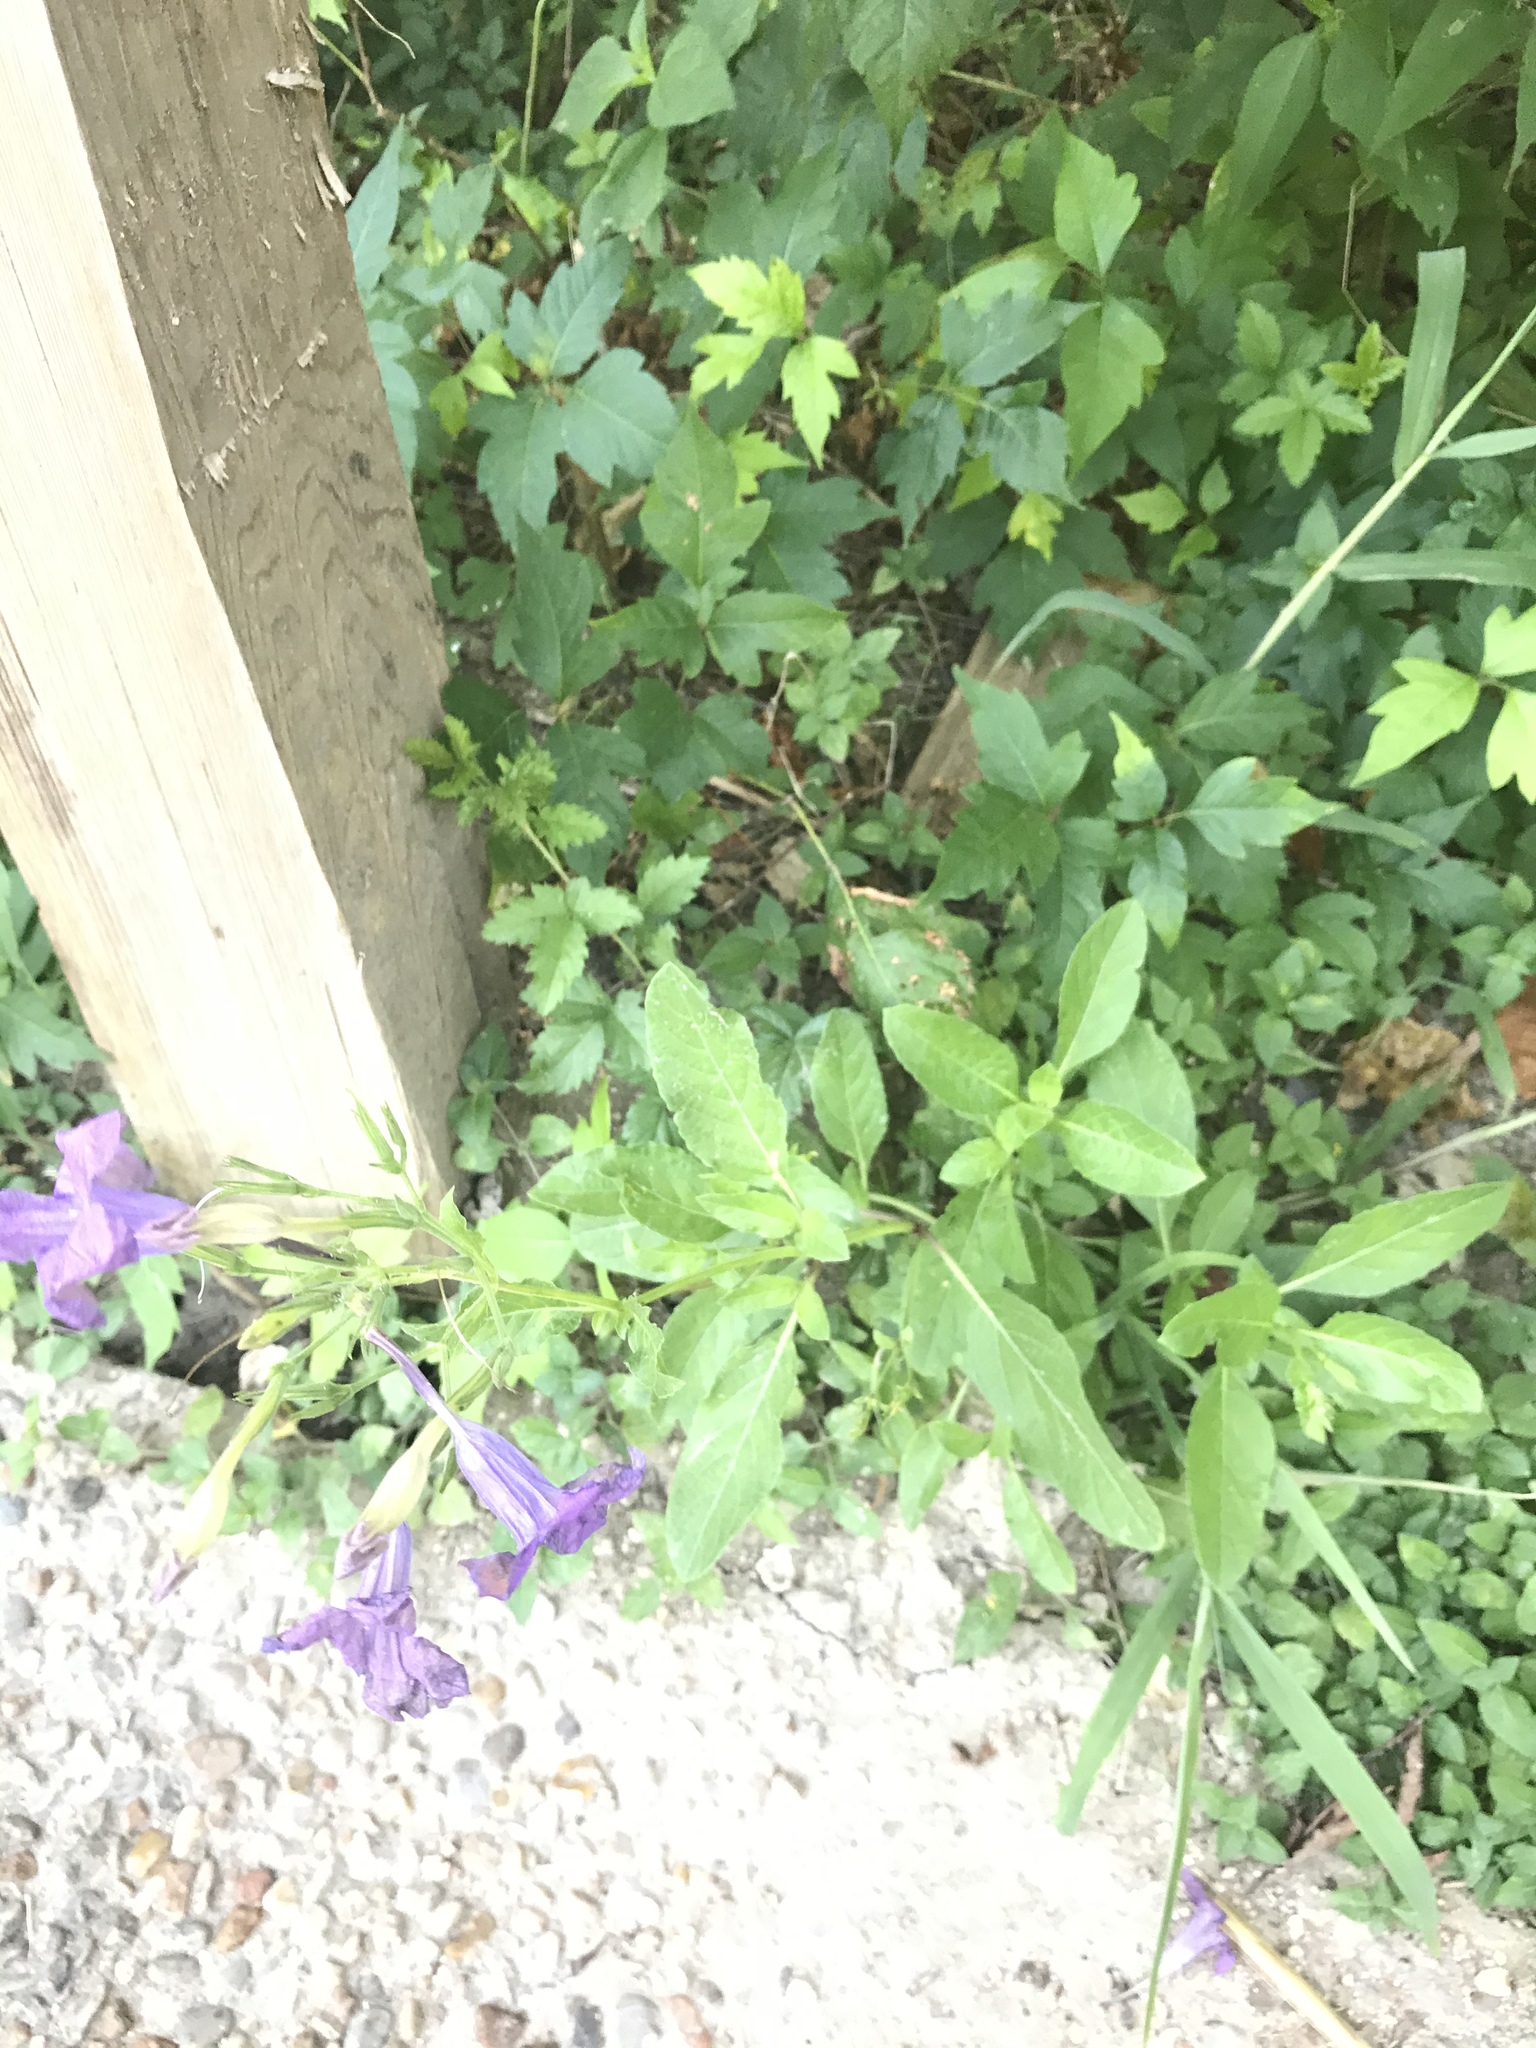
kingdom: Plantae
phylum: Tracheophyta
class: Magnoliopsida
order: Lamiales
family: Acanthaceae
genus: Ruellia
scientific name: Ruellia ciliatiflora
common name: Hairyflower wild petunia
